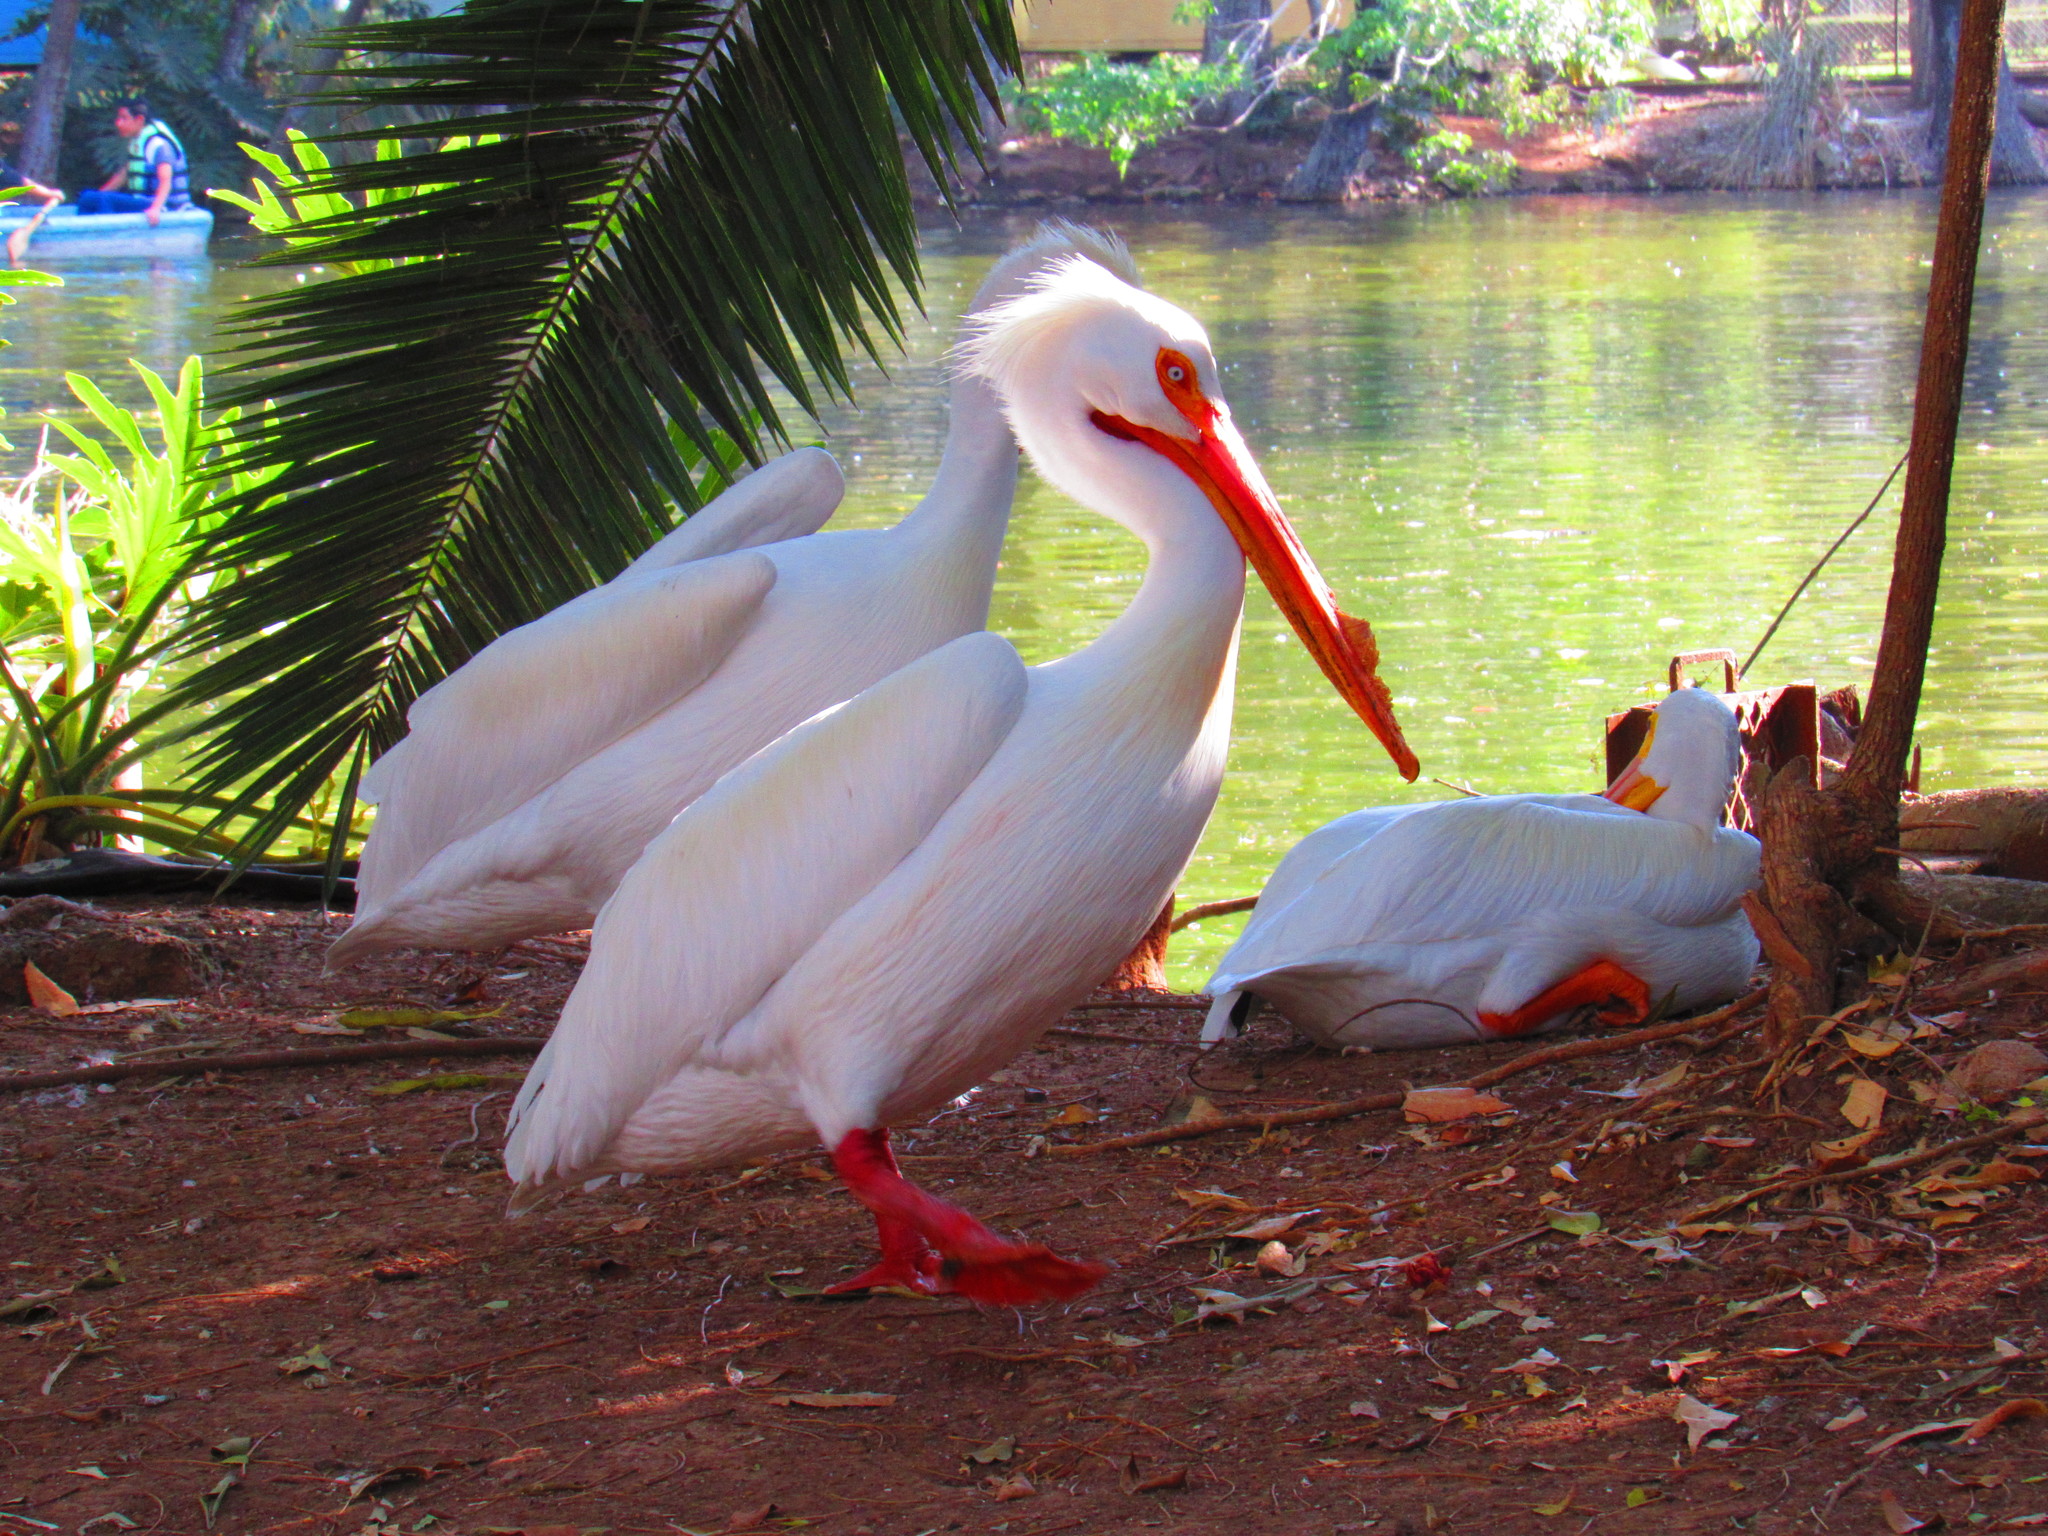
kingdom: Animalia
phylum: Chordata
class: Aves
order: Pelecaniformes
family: Pelecanidae
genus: Pelecanus
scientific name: Pelecanus erythrorhynchos
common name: American white pelican
